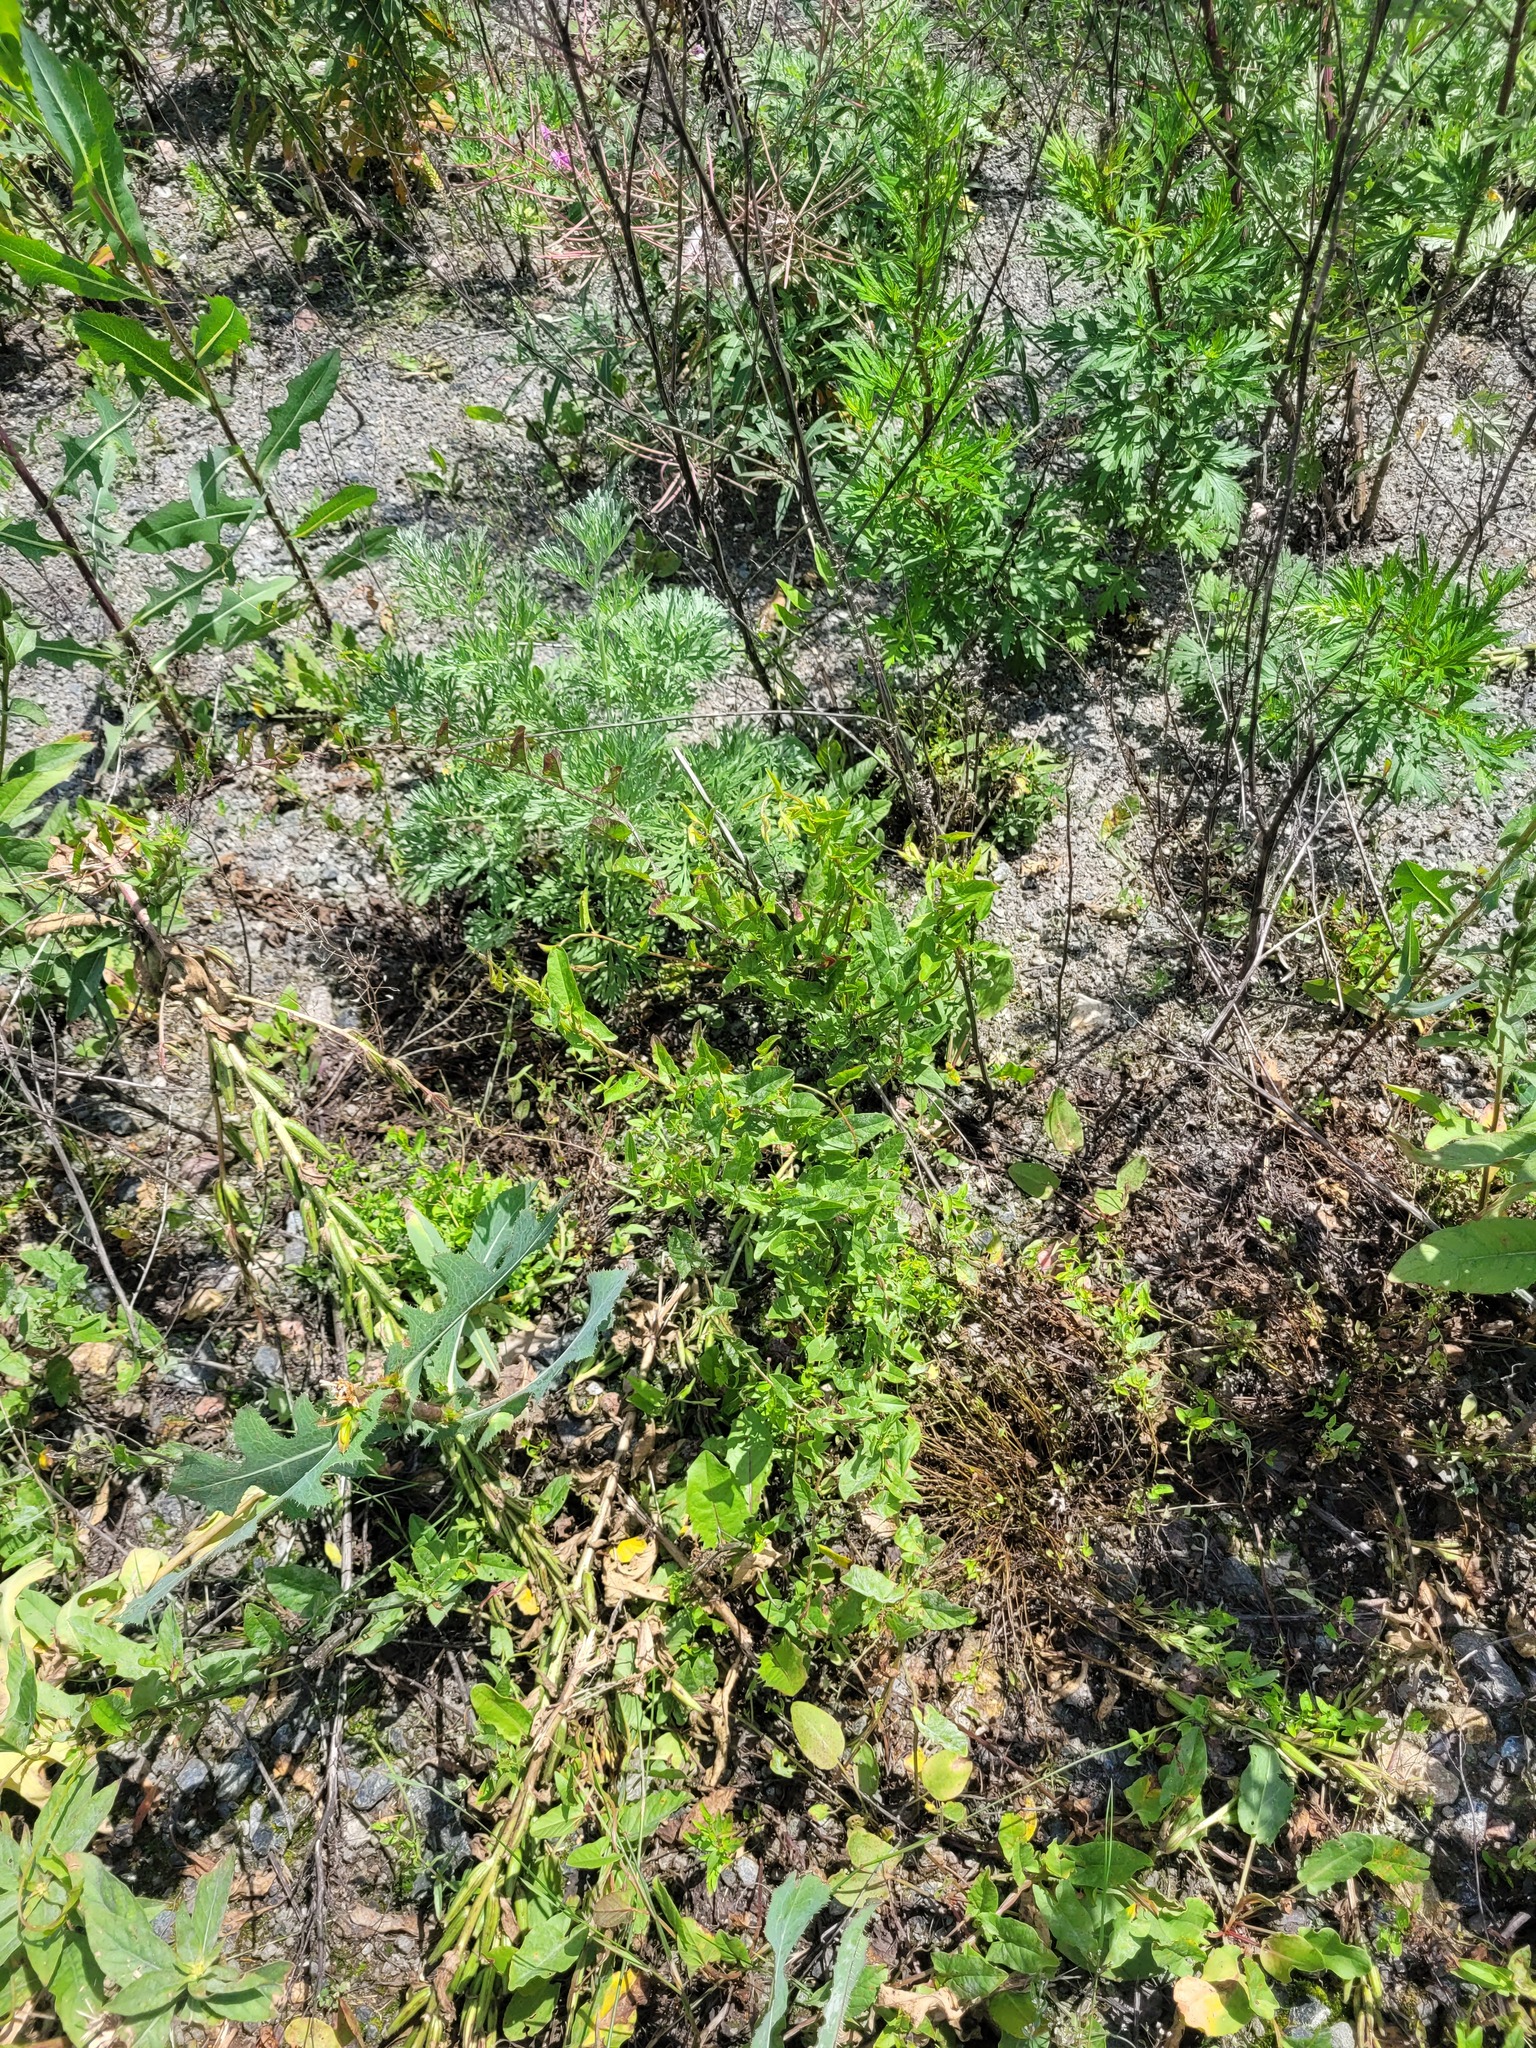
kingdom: Plantae
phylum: Tracheophyta
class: Magnoliopsida
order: Solanales
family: Convolvulaceae
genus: Convolvulus
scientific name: Convolvulus arvensis
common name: Field bindweed
